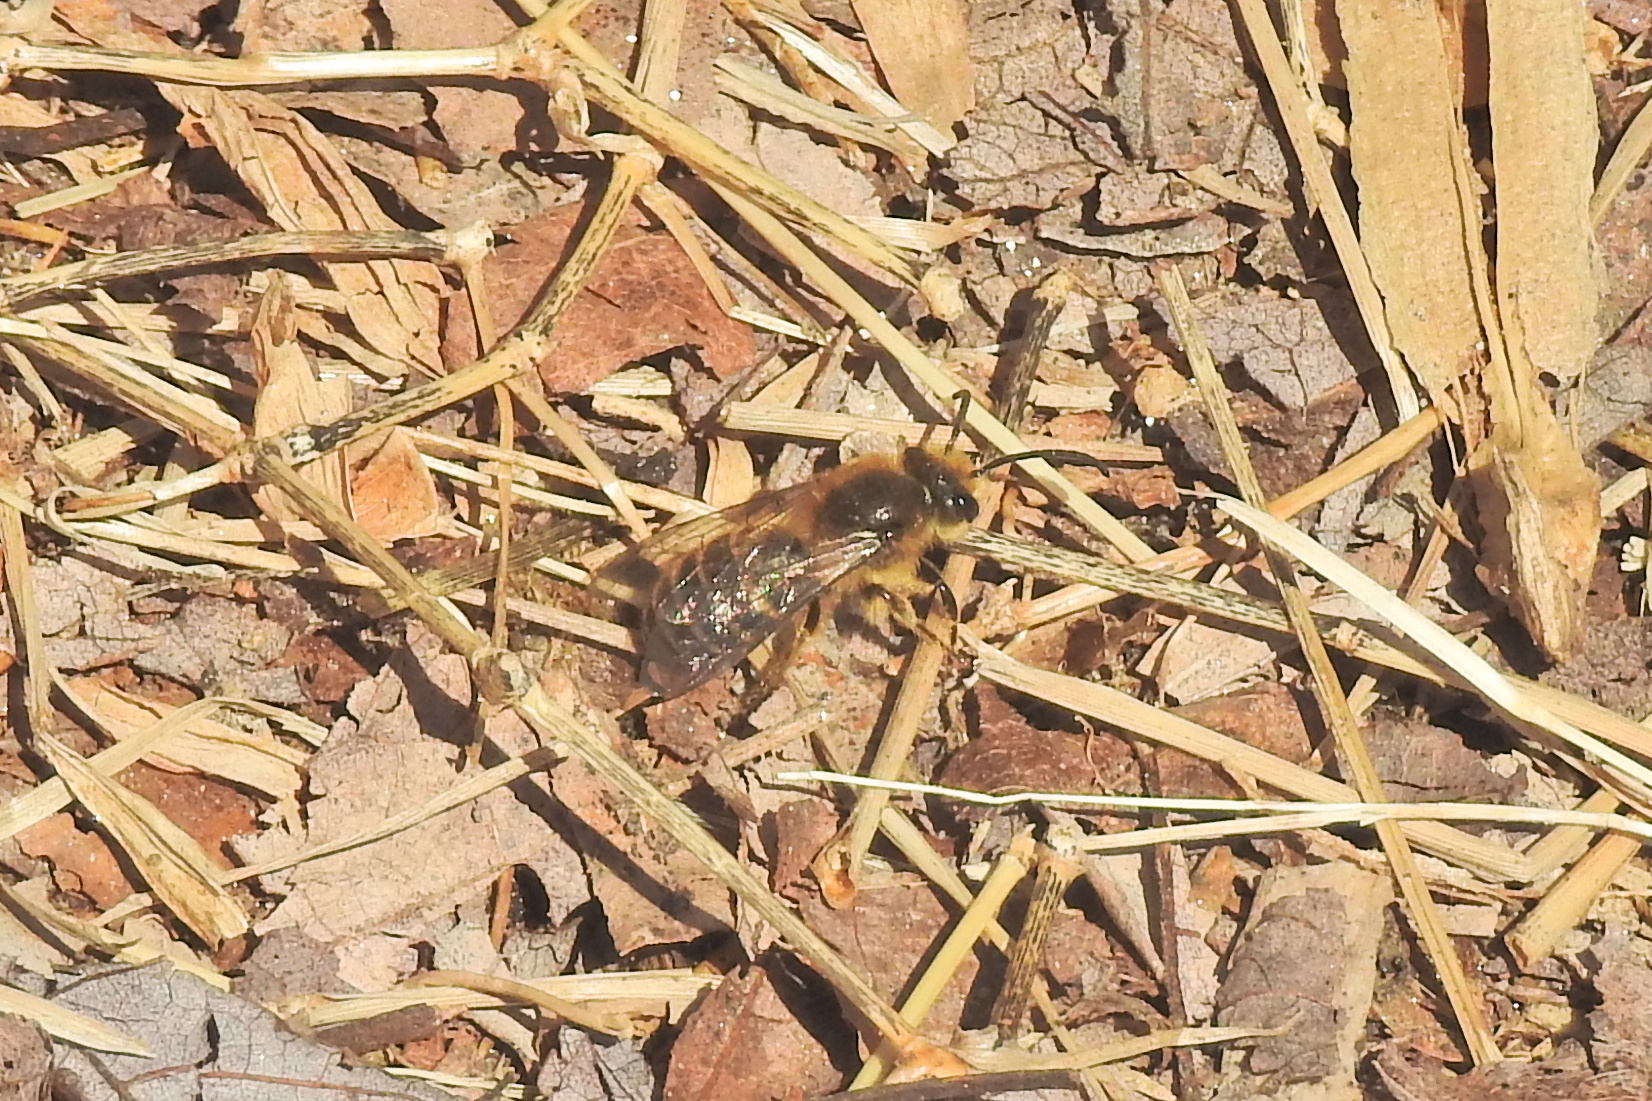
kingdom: Animalia
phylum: Arthropoda
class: Insecta
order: Hymenoptera
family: Colletidae
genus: Colletes
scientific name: Colletes inaequalis
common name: Unequal cellophane bee
